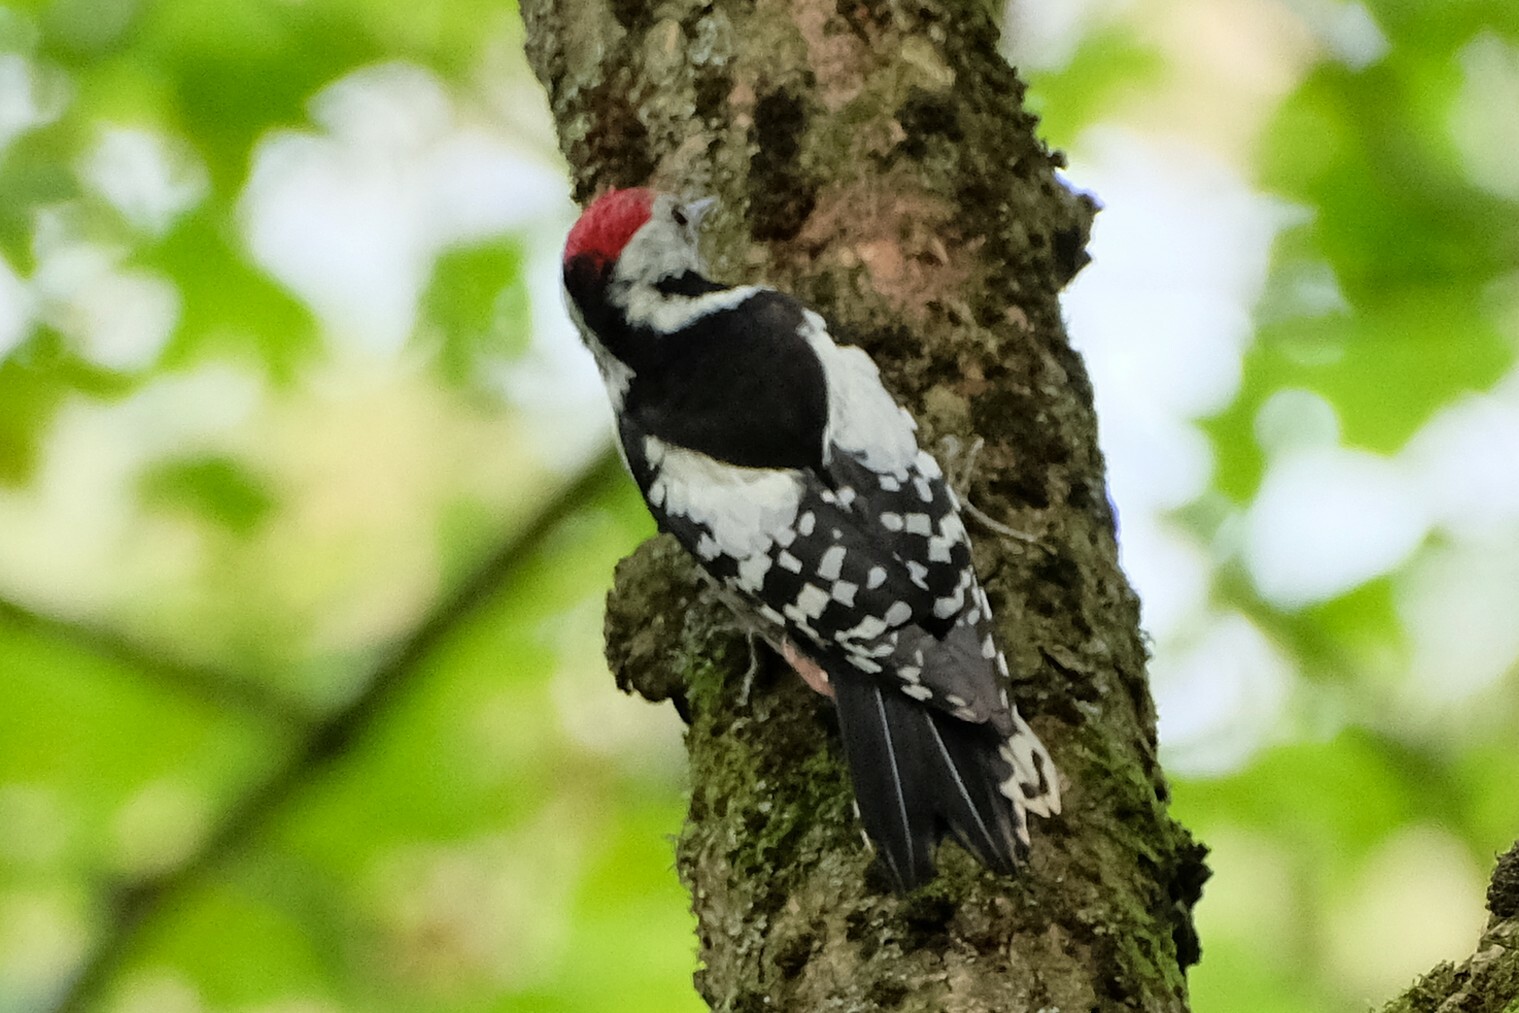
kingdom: Animalia
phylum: Chordata
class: Aves
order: Piciformes
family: Picidae
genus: Dendrocoptes
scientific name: Dendrocoptes medius
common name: Middle spotted woodpecker
